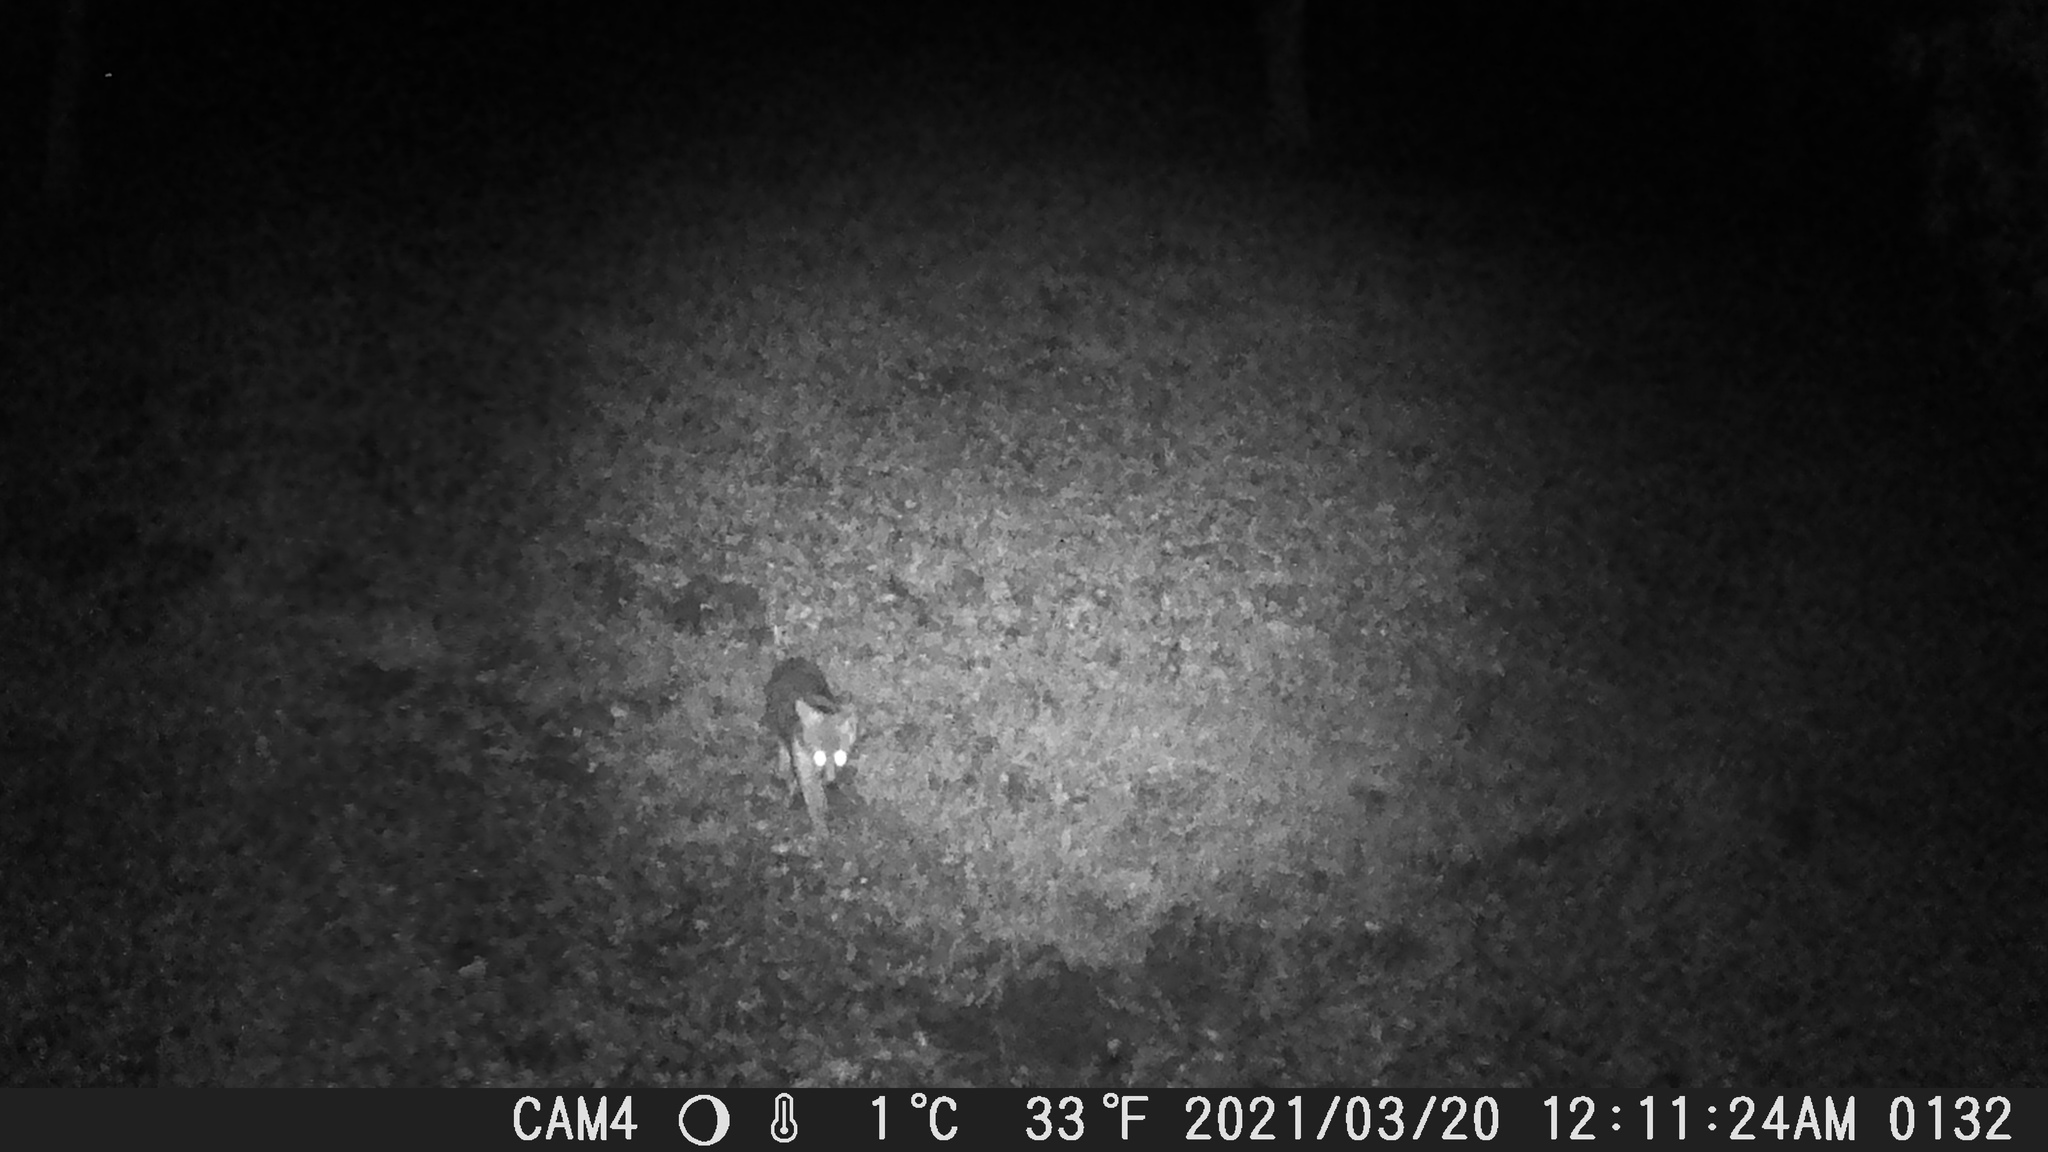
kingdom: Animalia
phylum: Chordata
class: Mammalia
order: Carnivora
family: Canidae
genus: Urocyon
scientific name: Urocyon cinereoargenteus
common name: Gray fox
